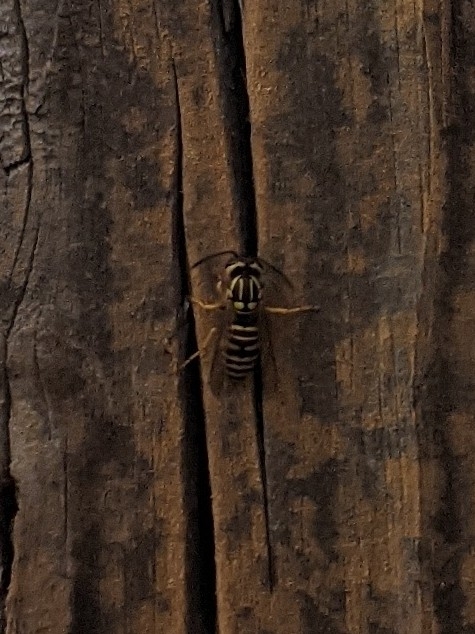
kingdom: Animalia
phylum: Arthropoda
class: Insecta
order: Hymenoptera
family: Vespidae
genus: Vespula
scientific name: Vespula squamosa
